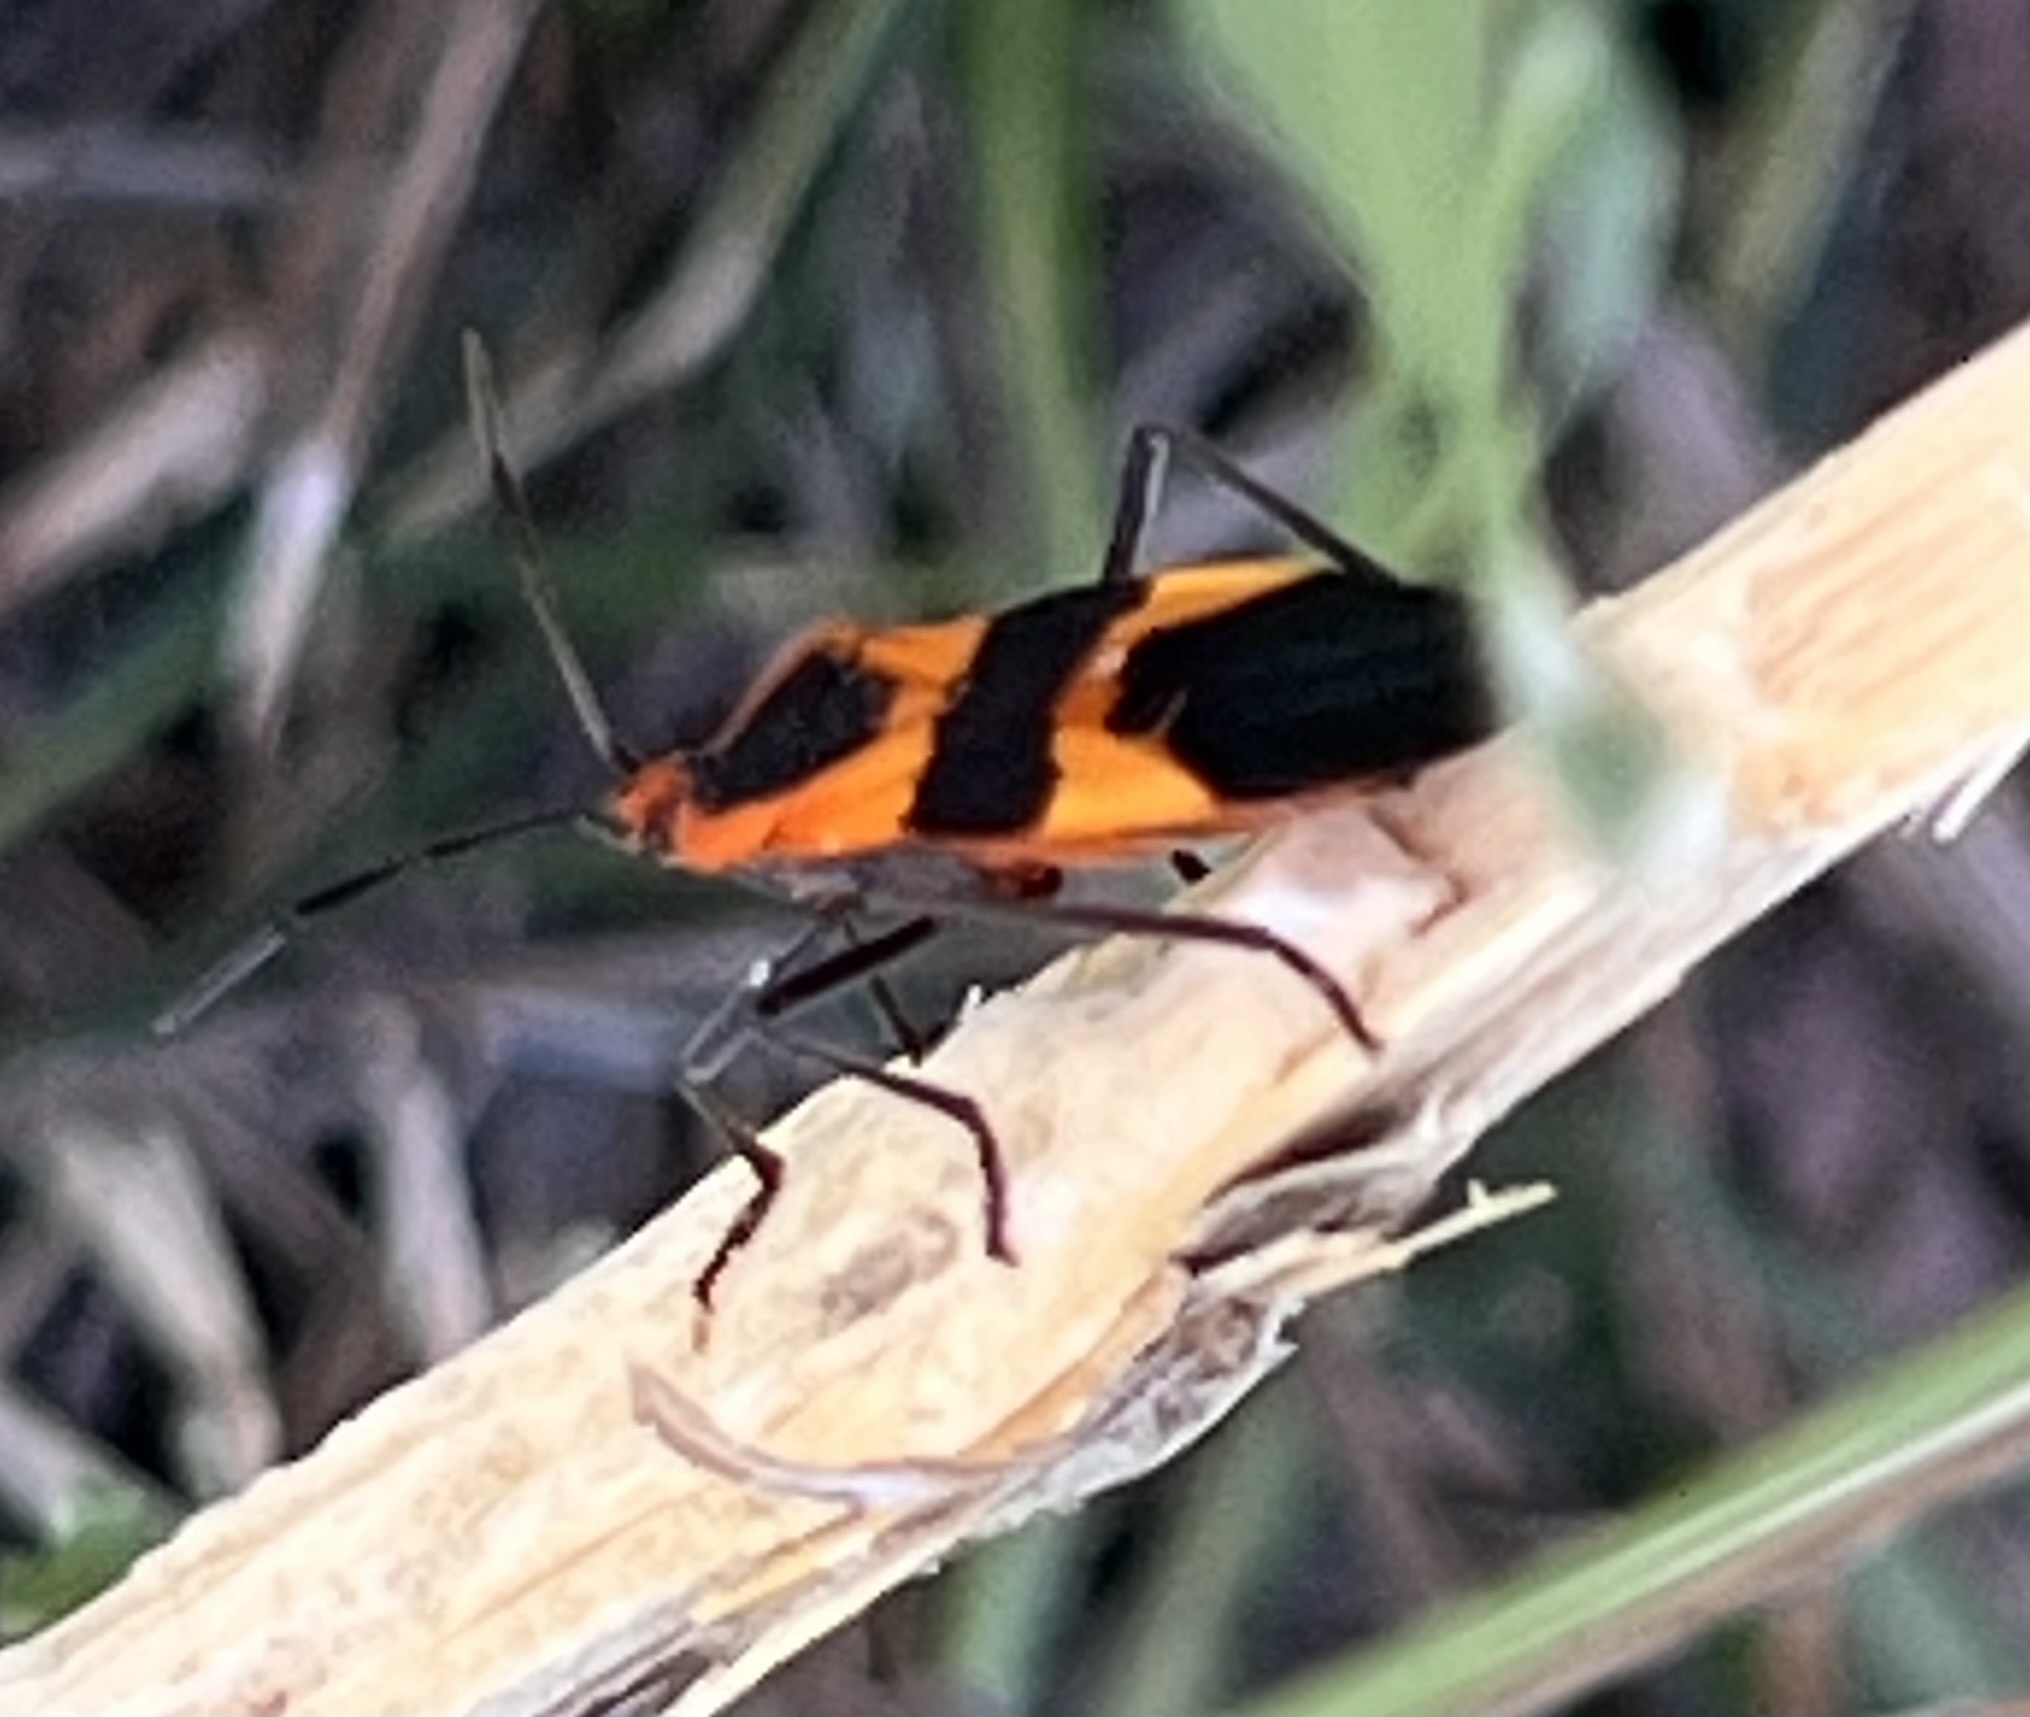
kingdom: Animalia
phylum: Arthropoda
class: Insecta
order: Hemiptera
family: Lygaeidae
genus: Oncopeltus
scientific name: Oncopeltus fasciatus
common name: Large milkweed bug
